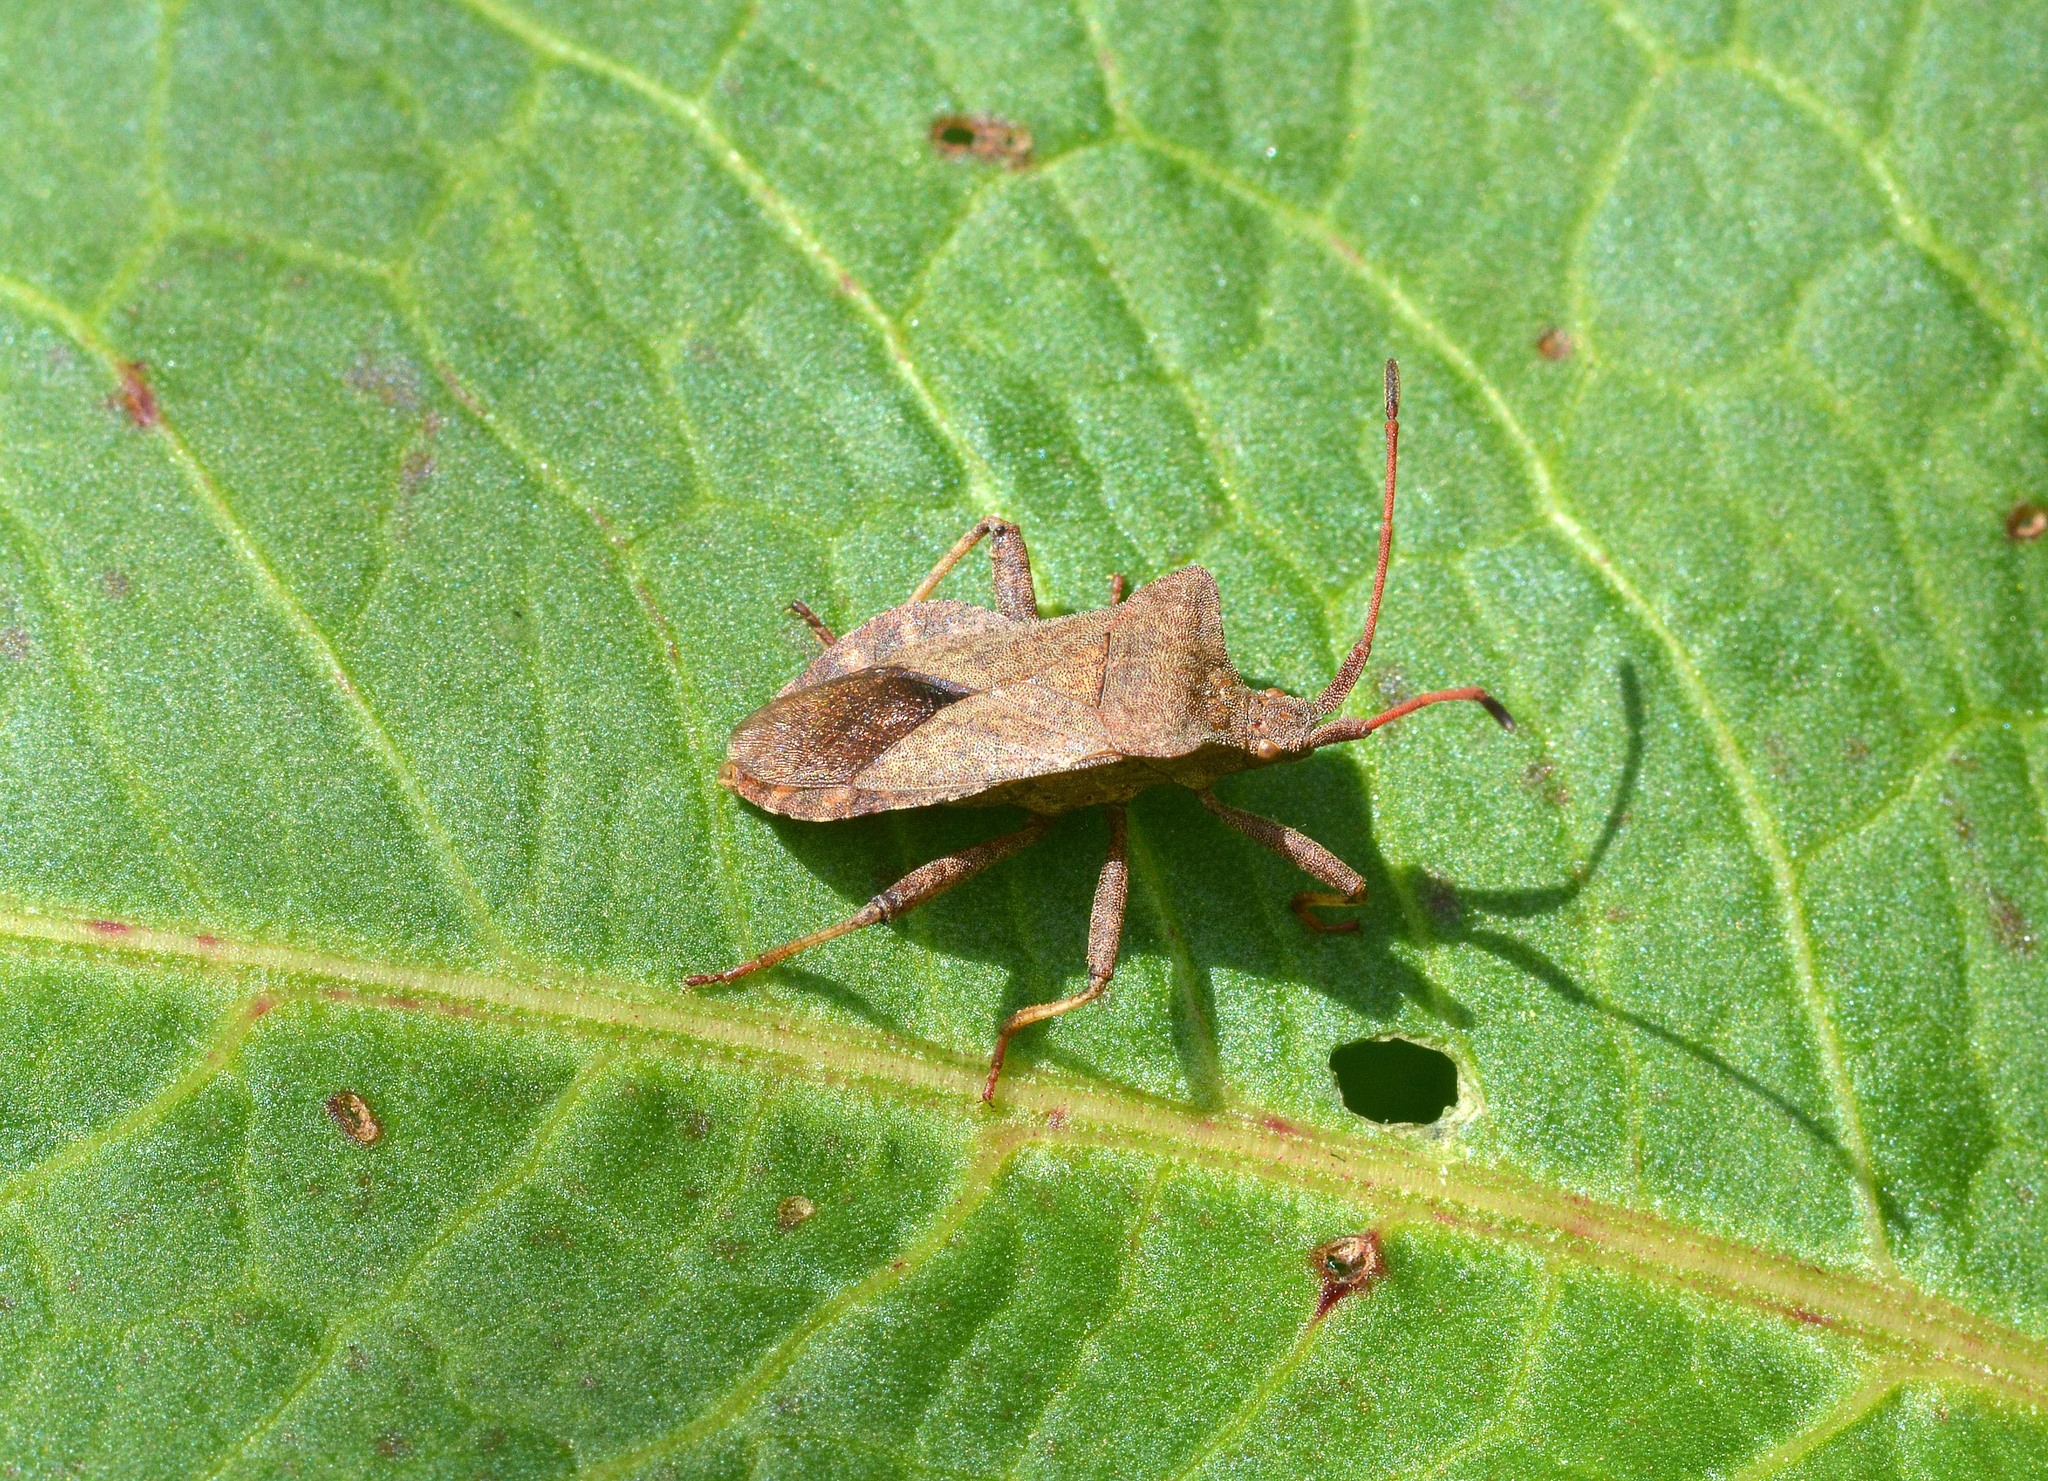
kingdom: Animalia
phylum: Arthropoda
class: Insecta
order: Hemiptera
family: Coreidae
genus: Coreus
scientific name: Coreus marginatus
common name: Dock bug
